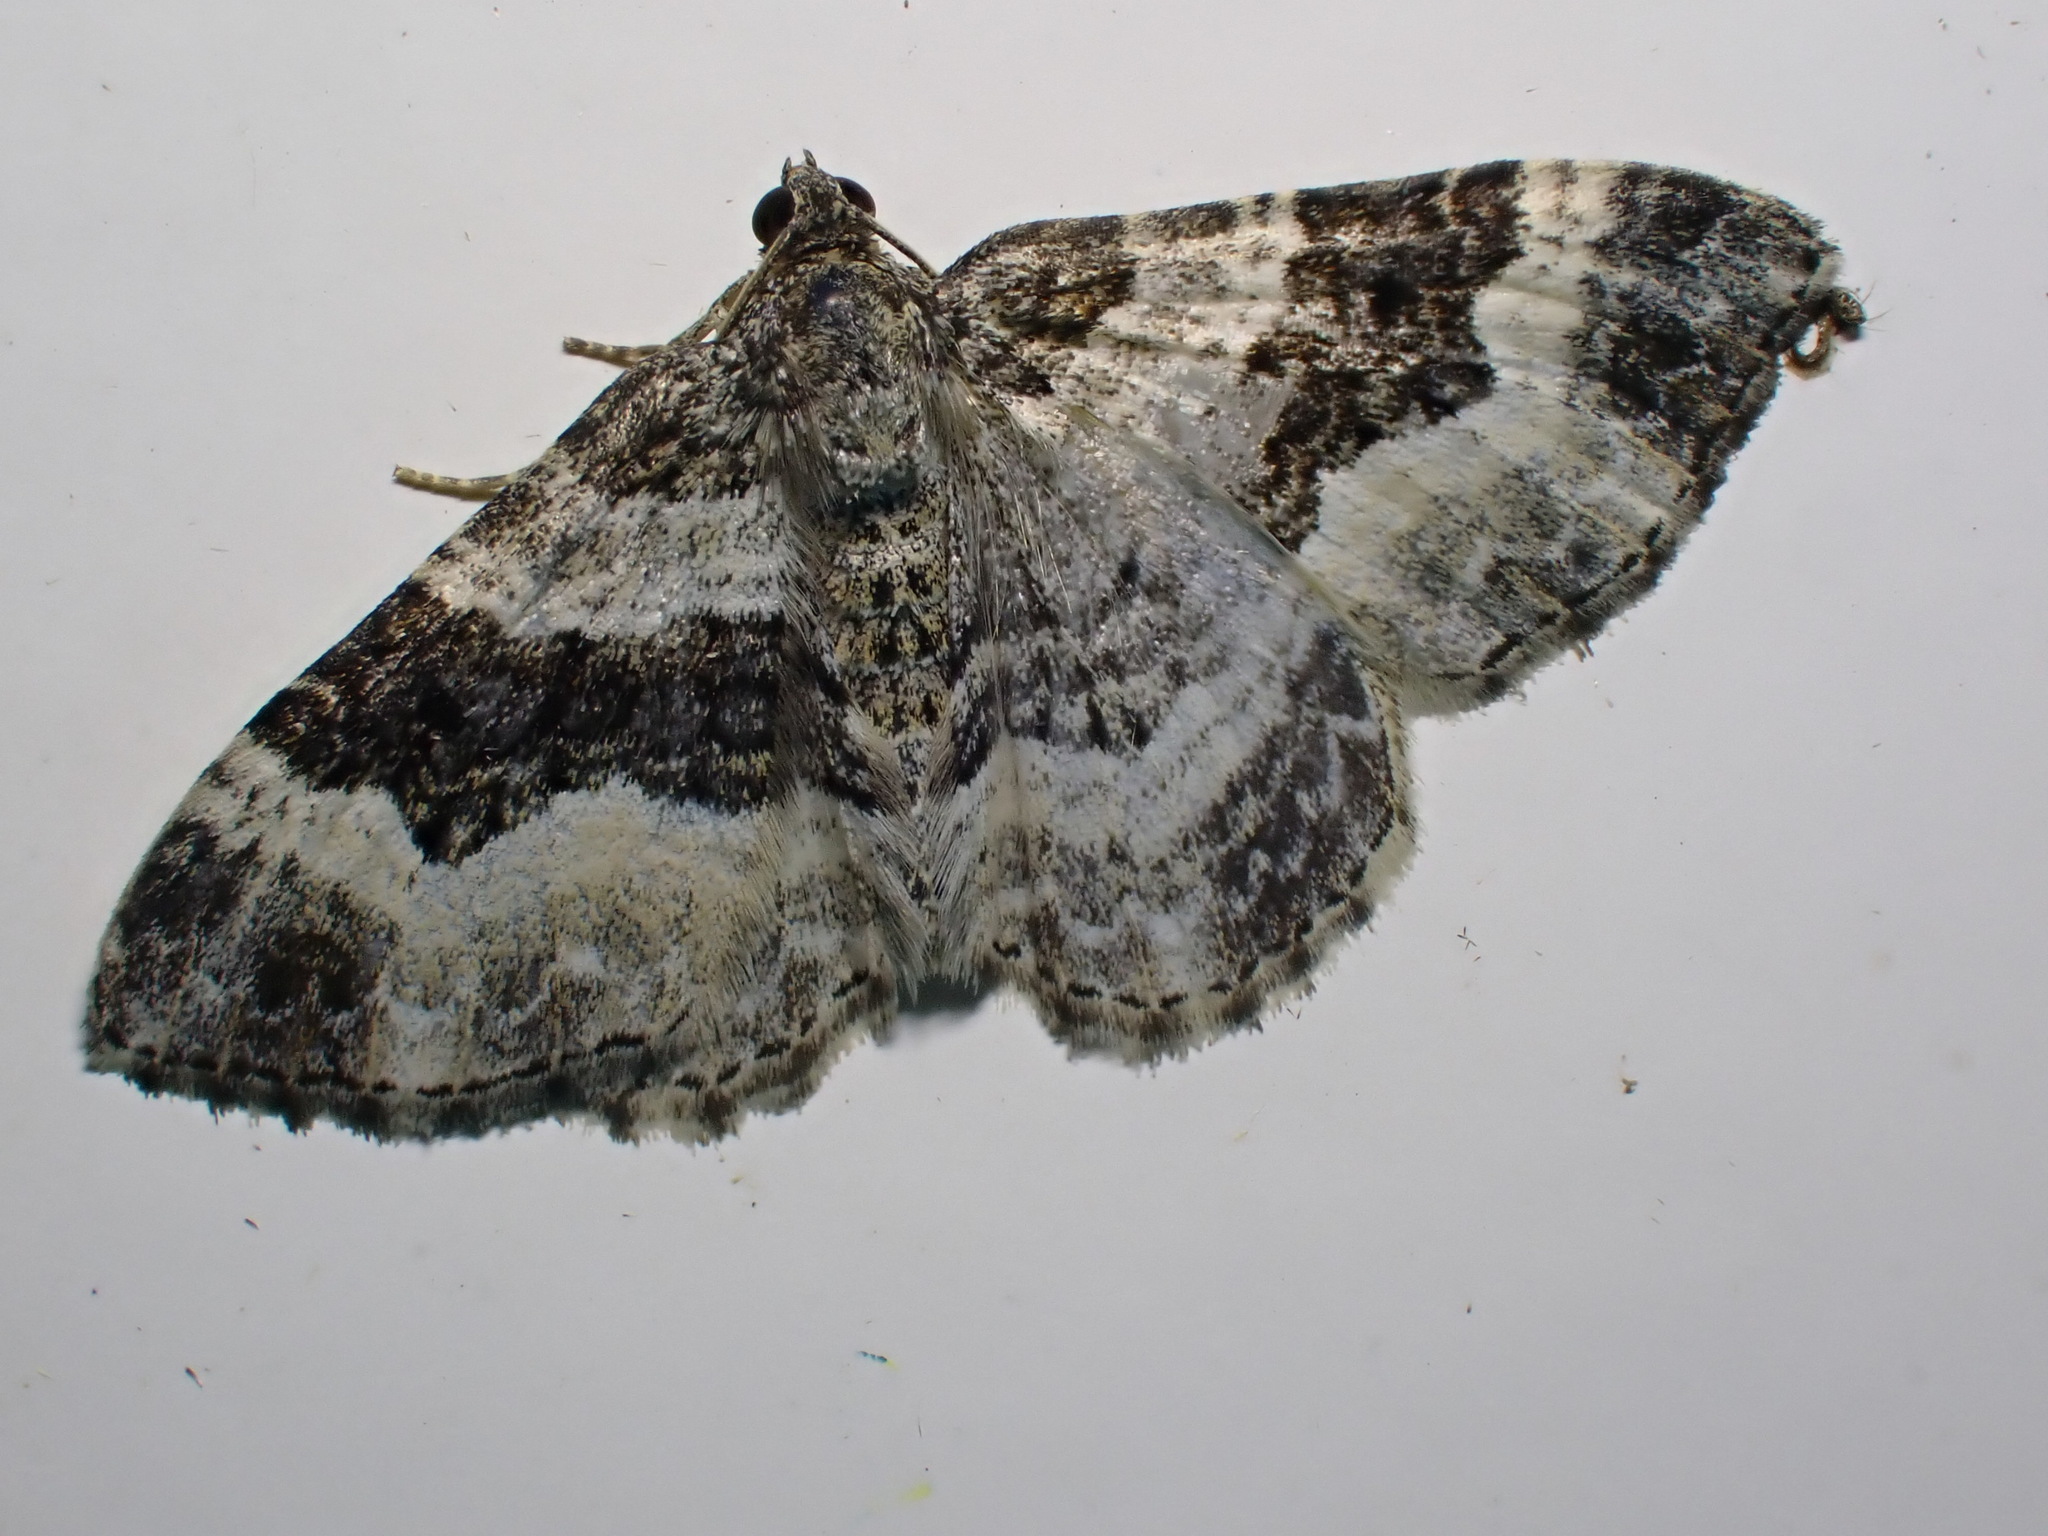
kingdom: Animalia
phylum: Arthropoda
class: Insecta
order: Lepidoptera
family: Geometridae
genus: Epirrhoe
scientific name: Epirrhoe alternata
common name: Common carpet
